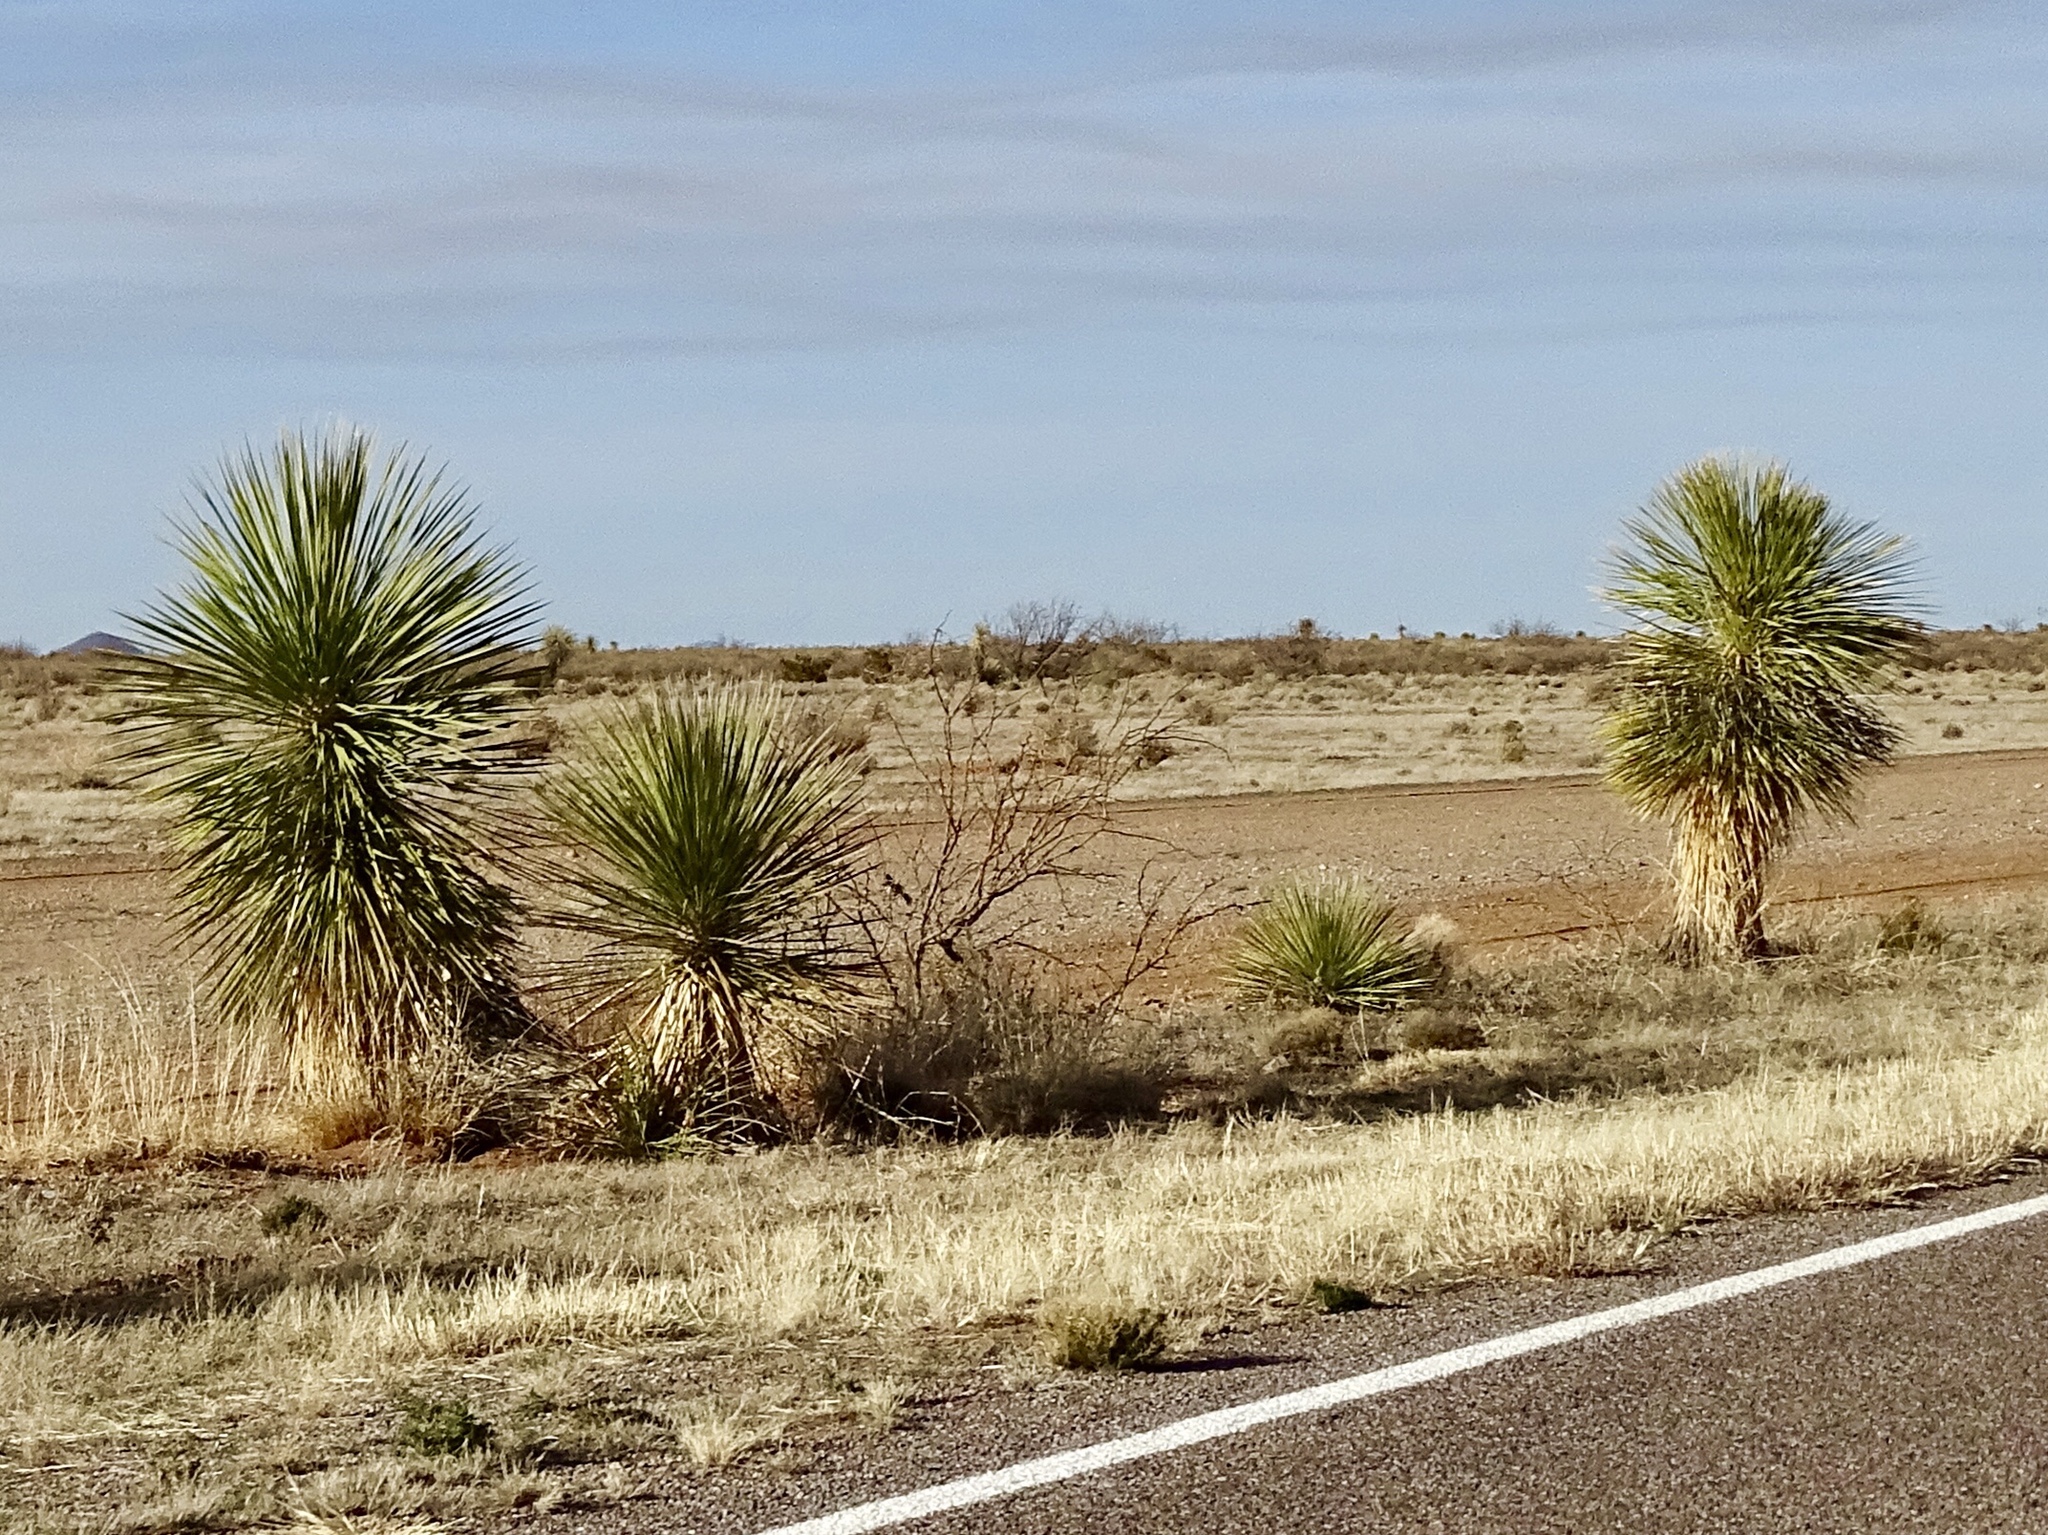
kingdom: Plantae
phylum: Tracheophyta
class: Liliopsida
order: Asparagales
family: Asparagaceae
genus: Yucca
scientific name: Yucca elata
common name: Palmella
